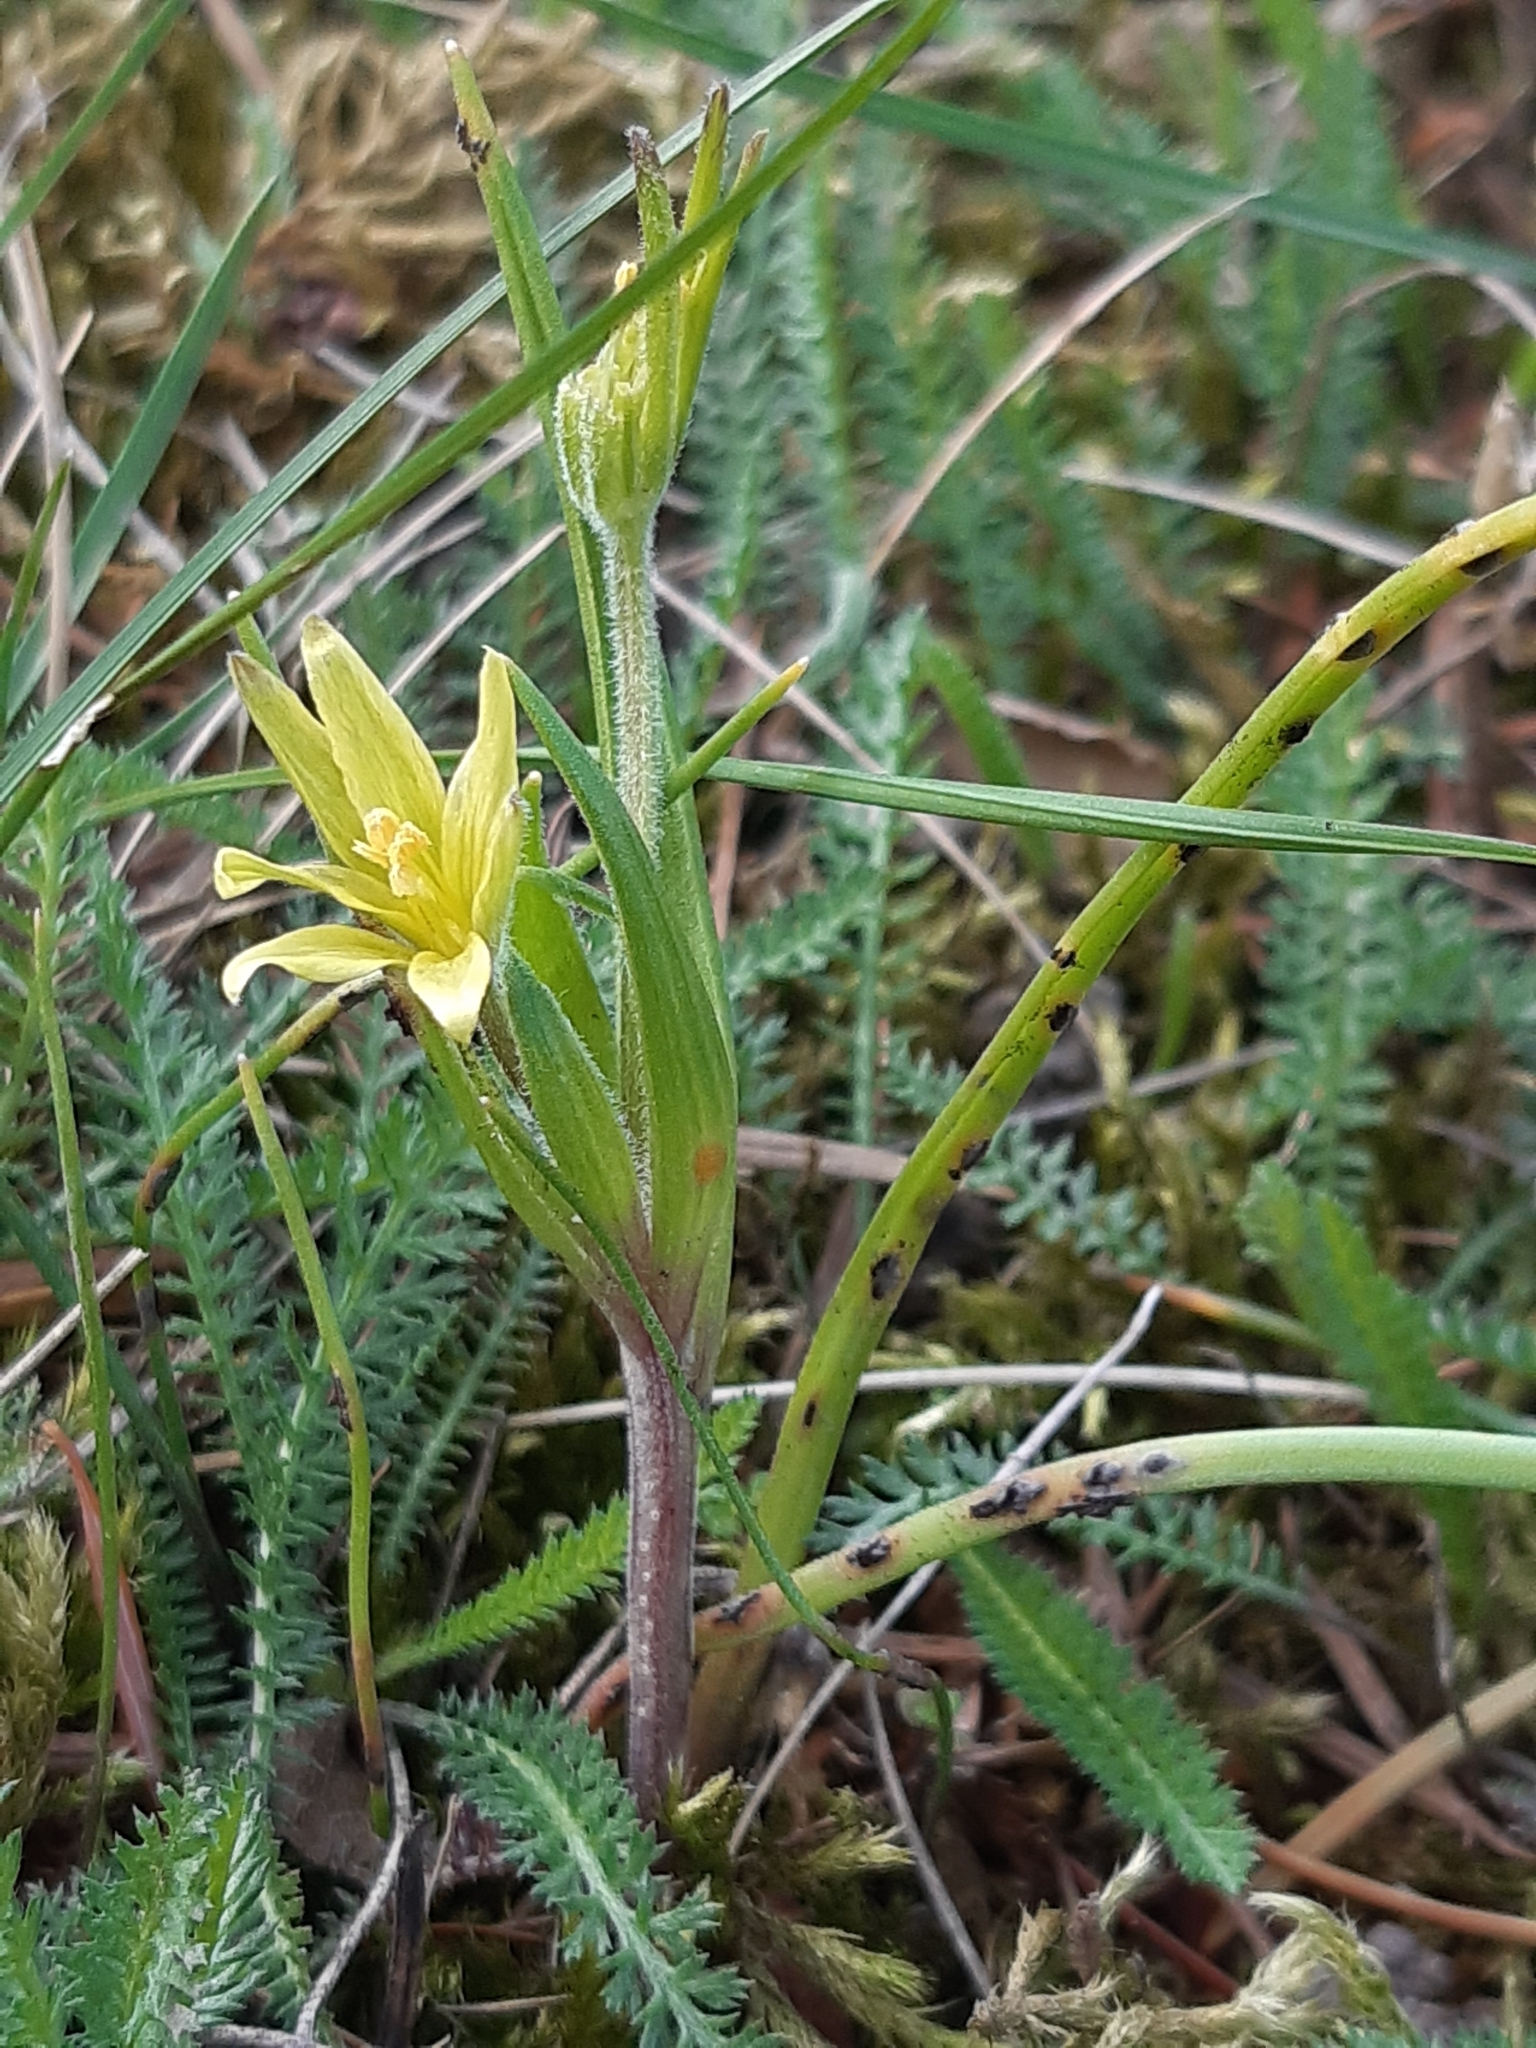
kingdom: Plantae
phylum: Tracheophyta
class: Liliopsida
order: Liliales
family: Liliaceae
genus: Gagea
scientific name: Gagea villosa
